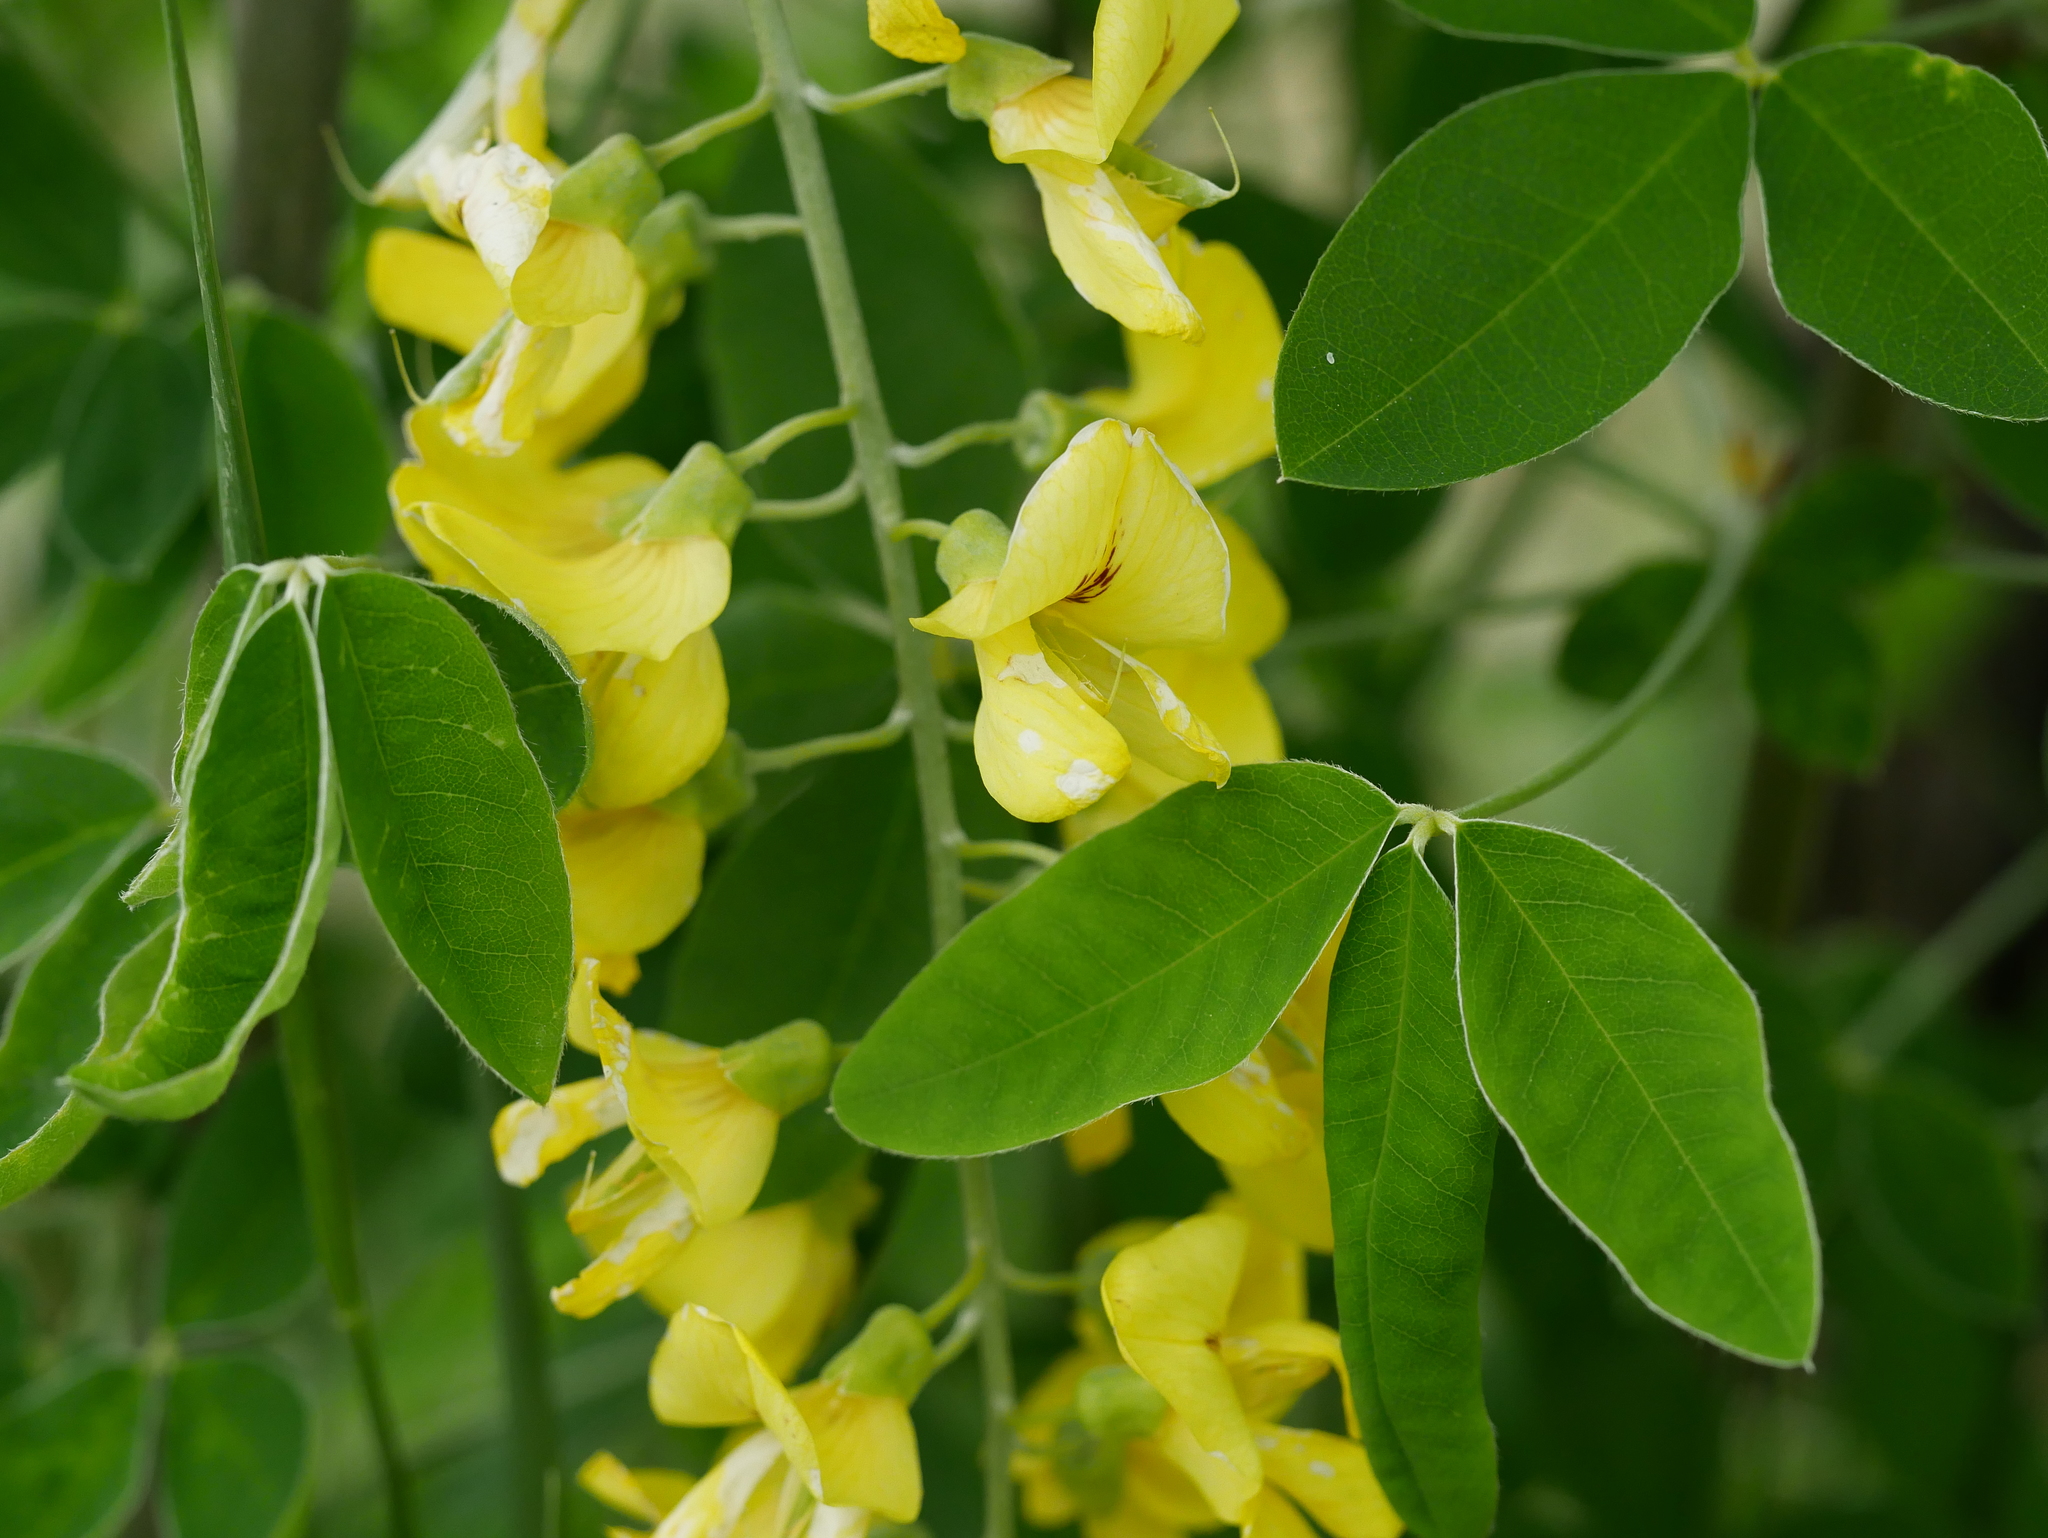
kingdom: Plantae
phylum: Tracheophyta
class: Magnoliopsida
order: Fabales
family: Fabaceae
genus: Laburnum
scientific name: Laburnum anagyroides
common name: Laburnum
